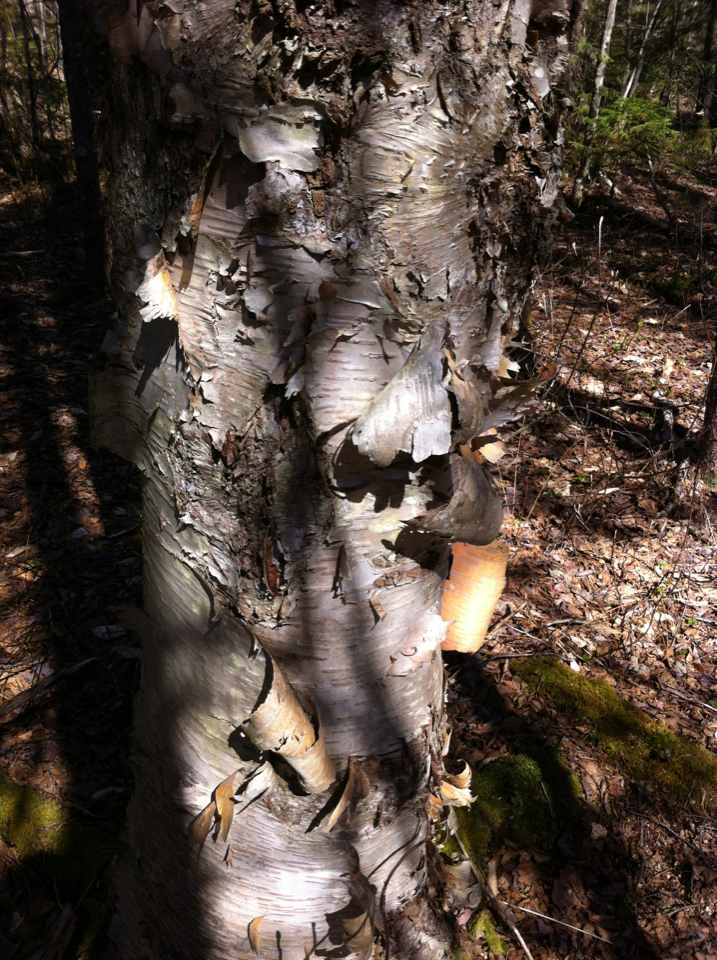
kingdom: Plantae
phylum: Tracheophyta
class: Magnoliopsida
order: Fagales
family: Betulaceae
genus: Betula
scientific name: Betula papyrifera
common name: Paper birch
